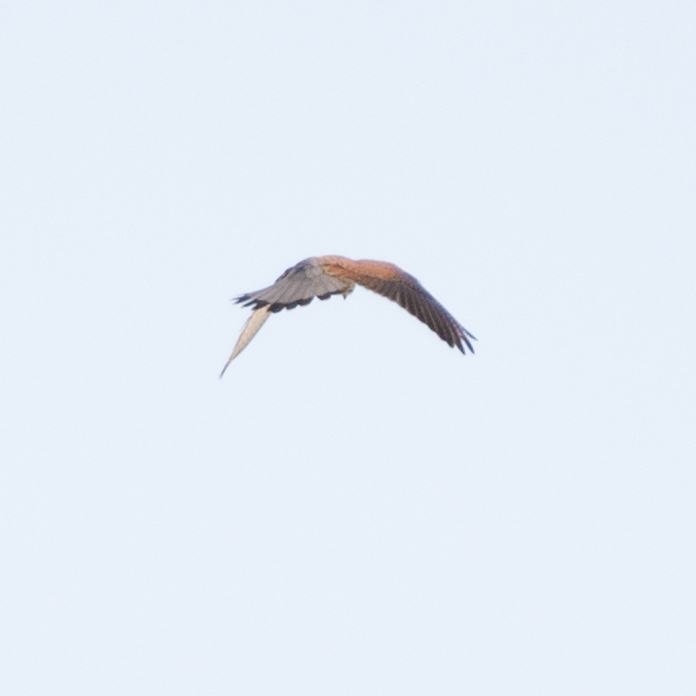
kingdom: Animalia
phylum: Chordata
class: Aves
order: Falconiformes
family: Falconidae
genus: Falco
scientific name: Falco tinnunculus
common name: Common kestrel
